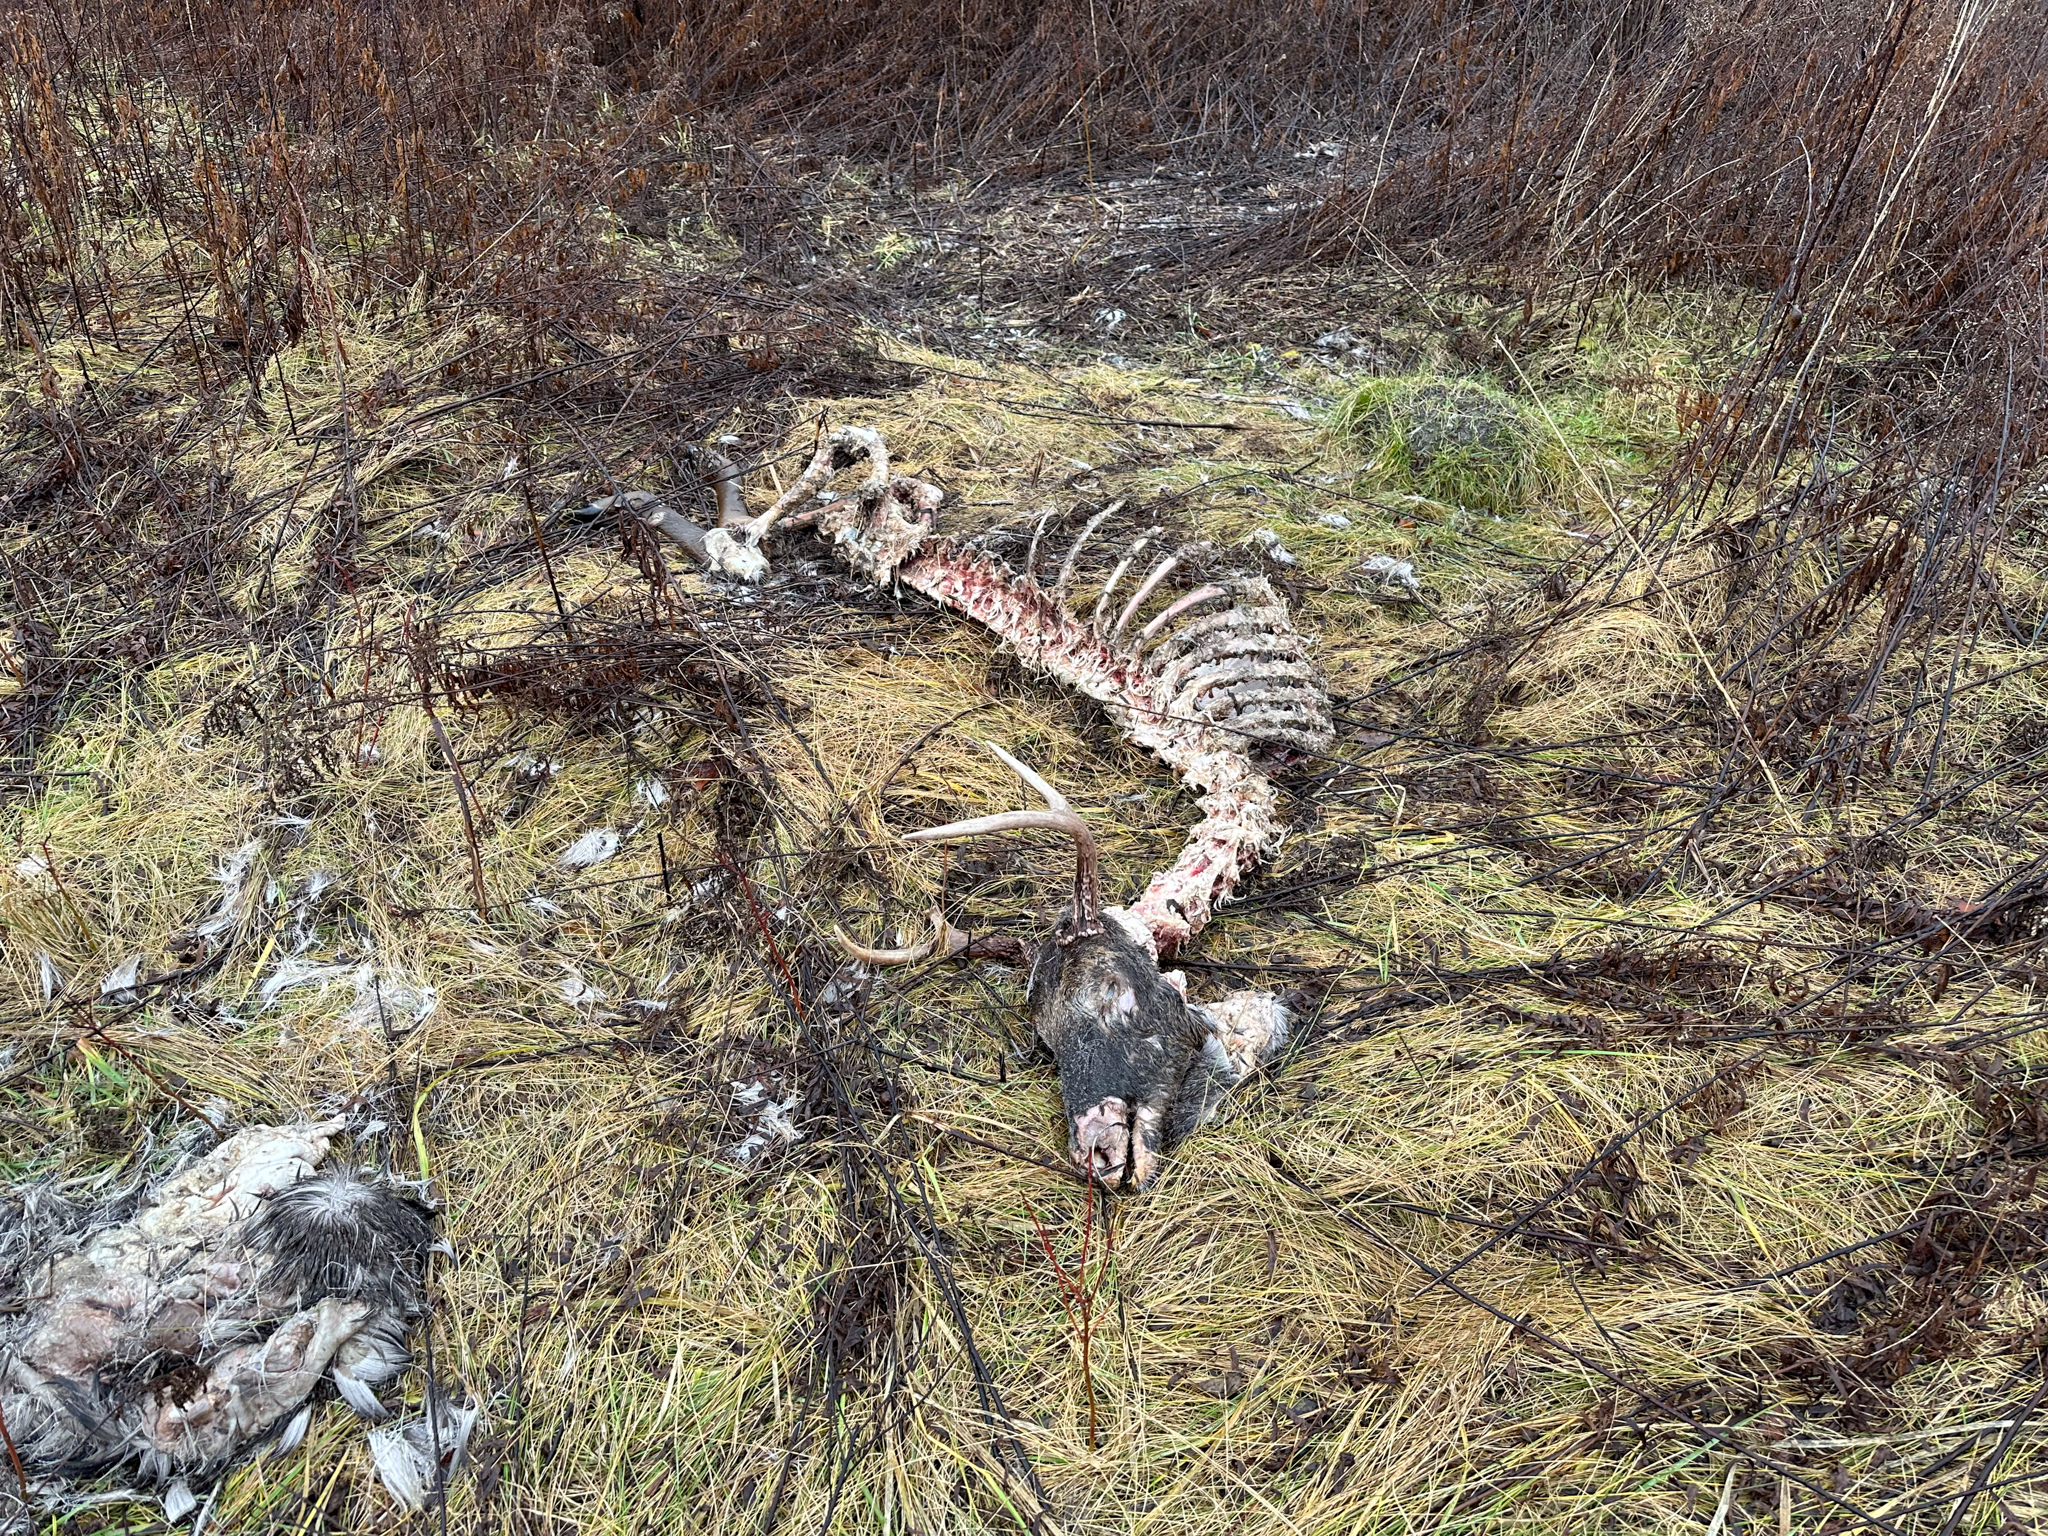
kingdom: Animalia
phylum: Chordata
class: Mammalia
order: Artiodactyla
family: Cervidae
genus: Odocoileus
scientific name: Odocoileus virginianus
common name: White-tailed deer
